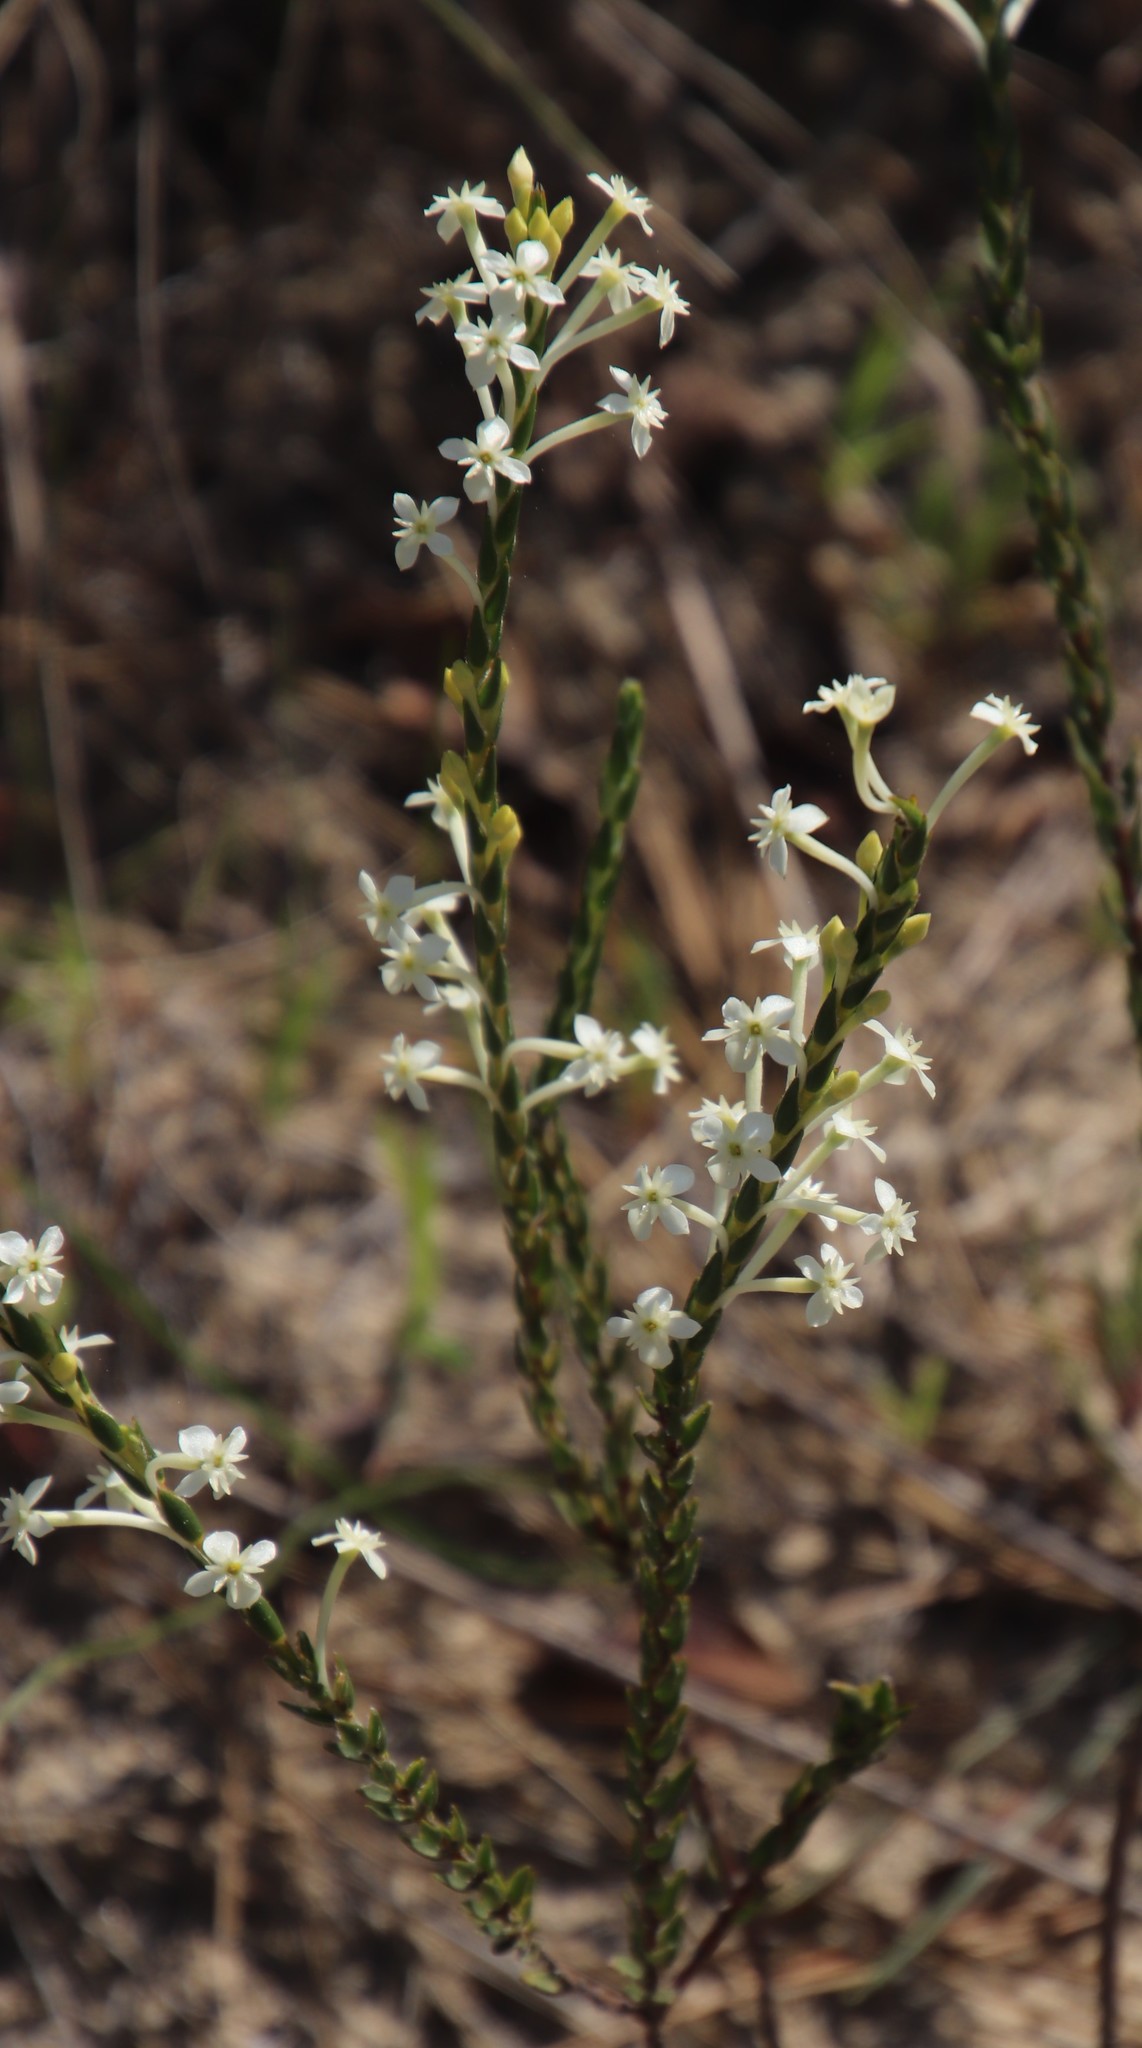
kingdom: Plantae
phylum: Tracheophyta
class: Magnoliopsida
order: Malvales
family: Thymelaeaceae
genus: Struthiola
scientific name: Struthiola ciliata
